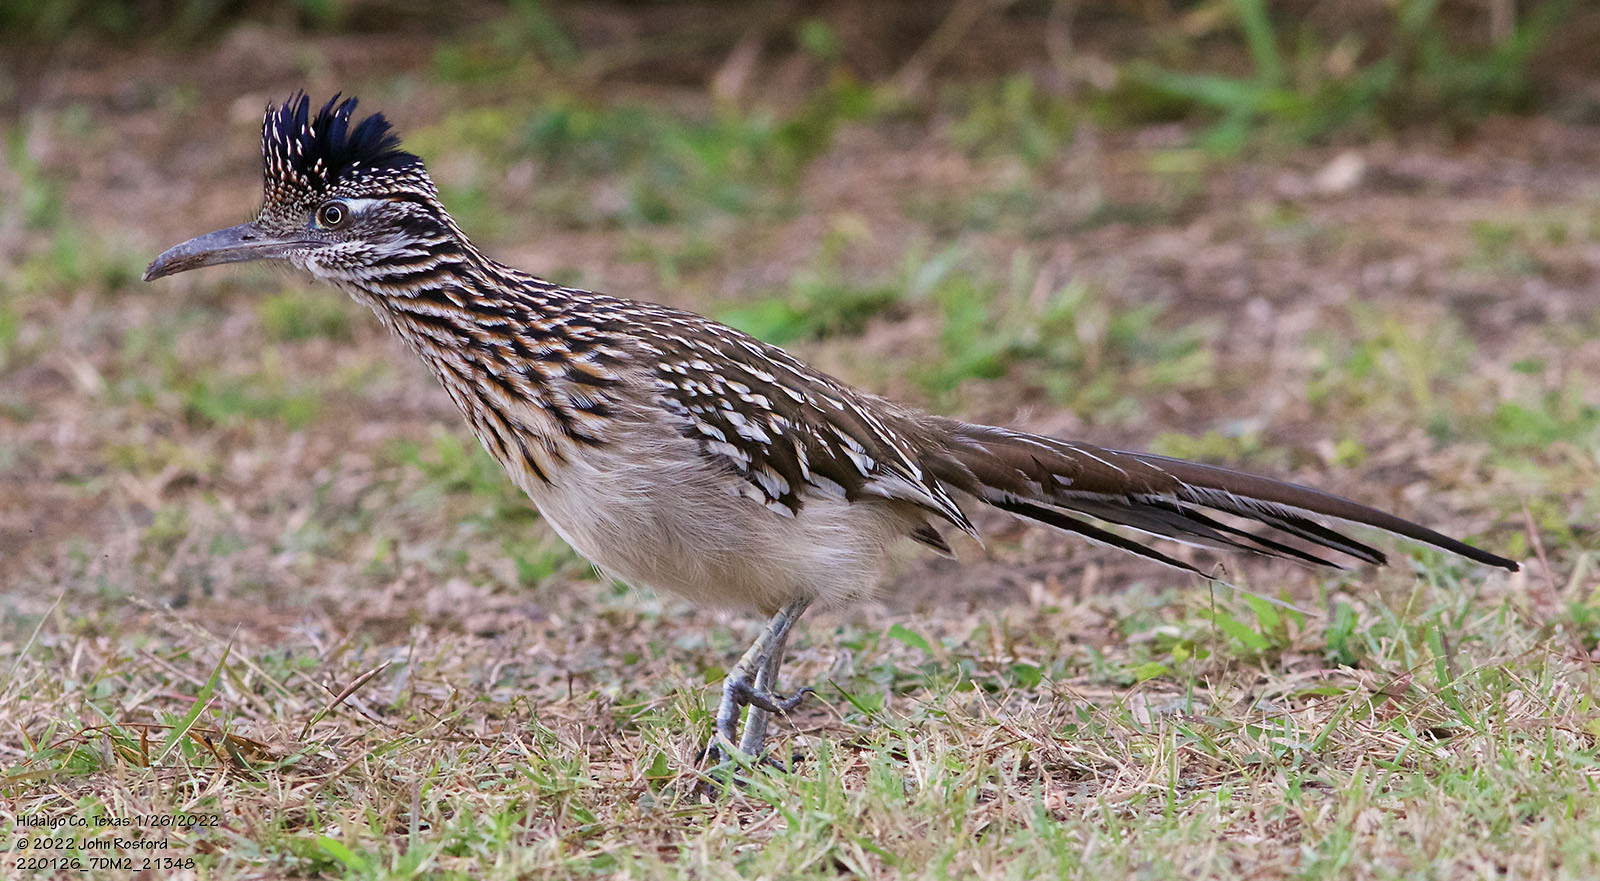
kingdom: Animalia
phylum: Chordata
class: Aves
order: Cuculiformes
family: Cuculidae
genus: Geococcyx
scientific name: Geococcyx californianus
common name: Greater roadrunner
